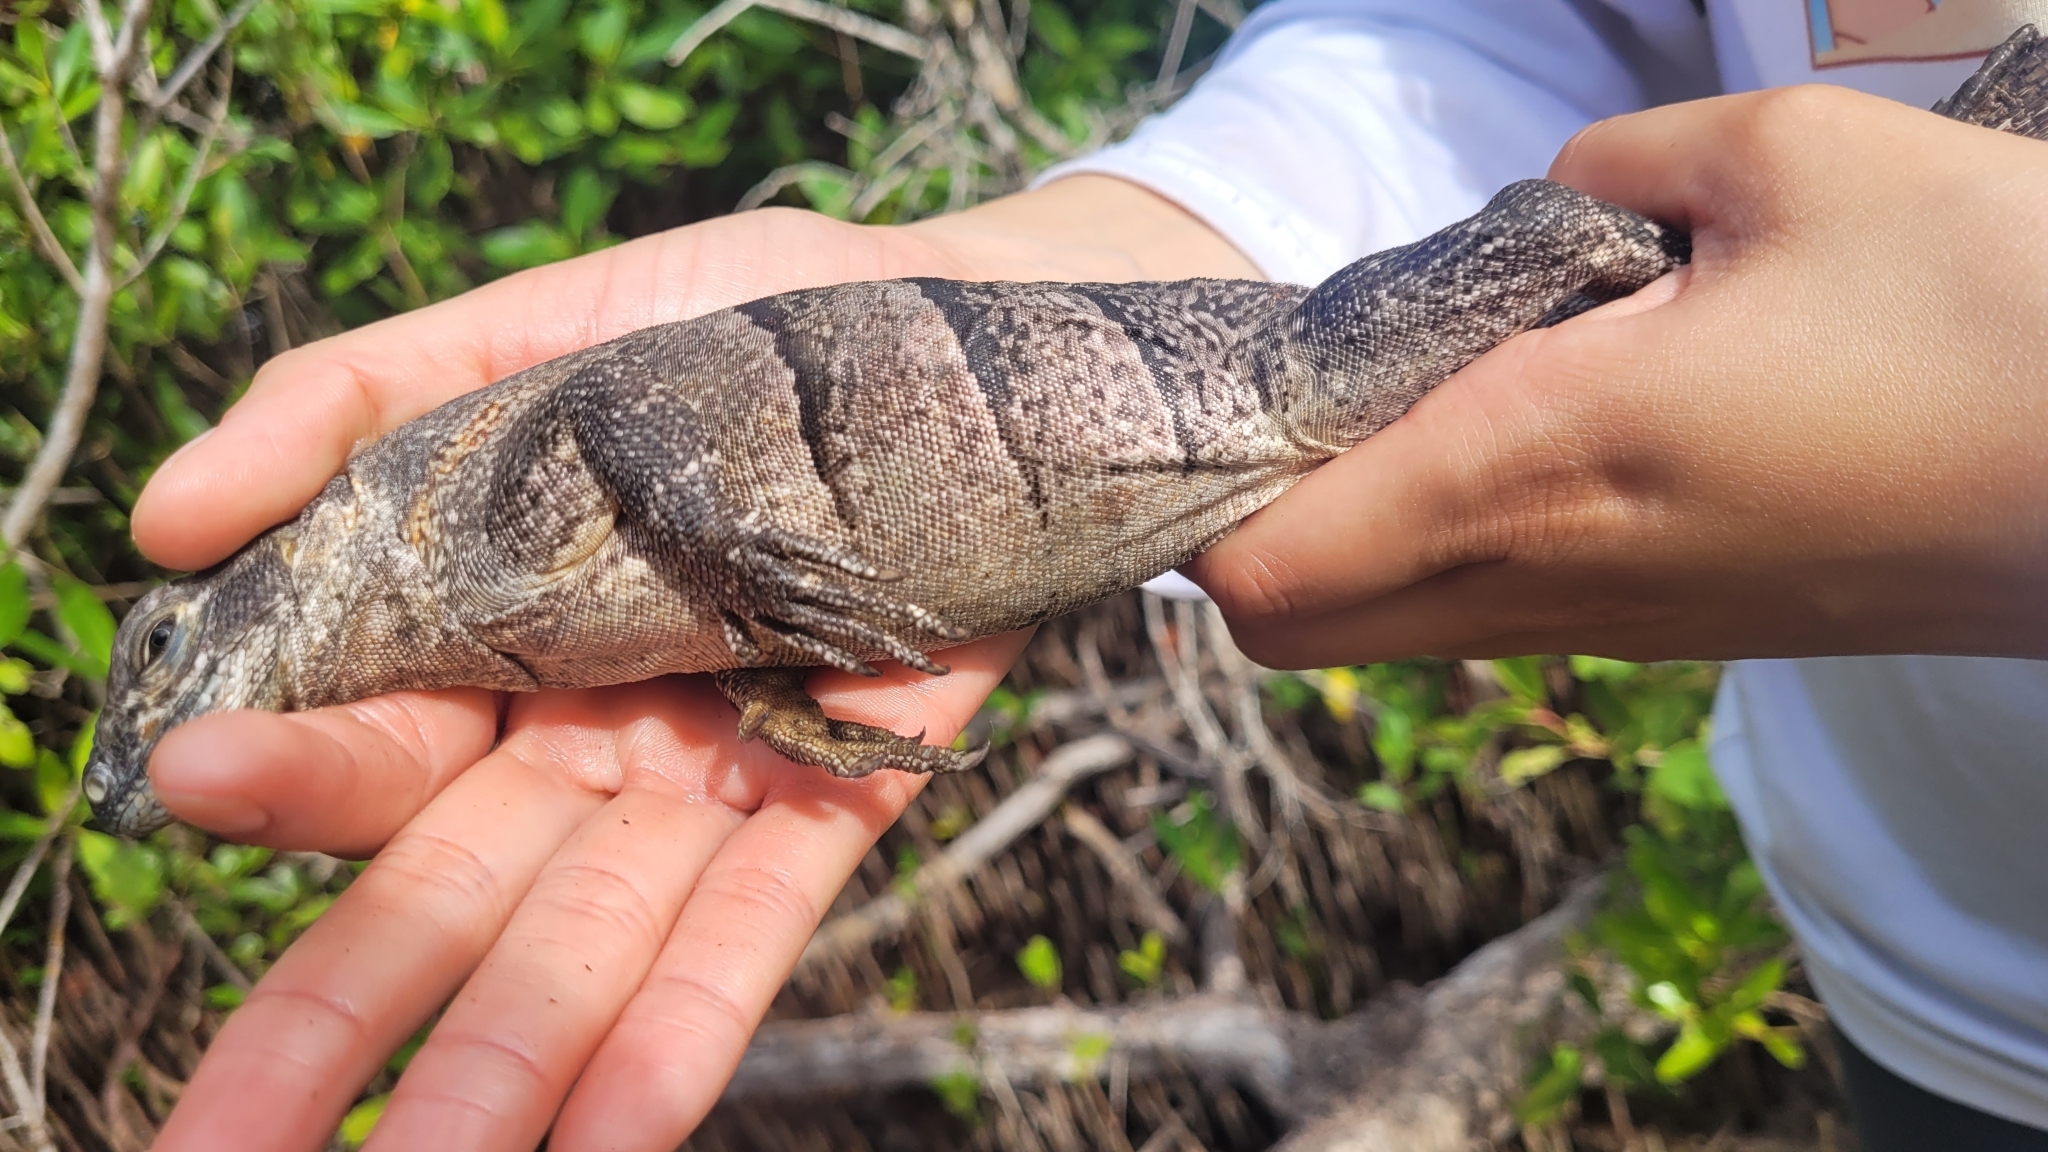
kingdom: Animalia
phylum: Chordata
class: Squamata
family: Iguanidae
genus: Ctenosaura
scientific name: Ctenosaura similis
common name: Black spiny-tailed iguana
